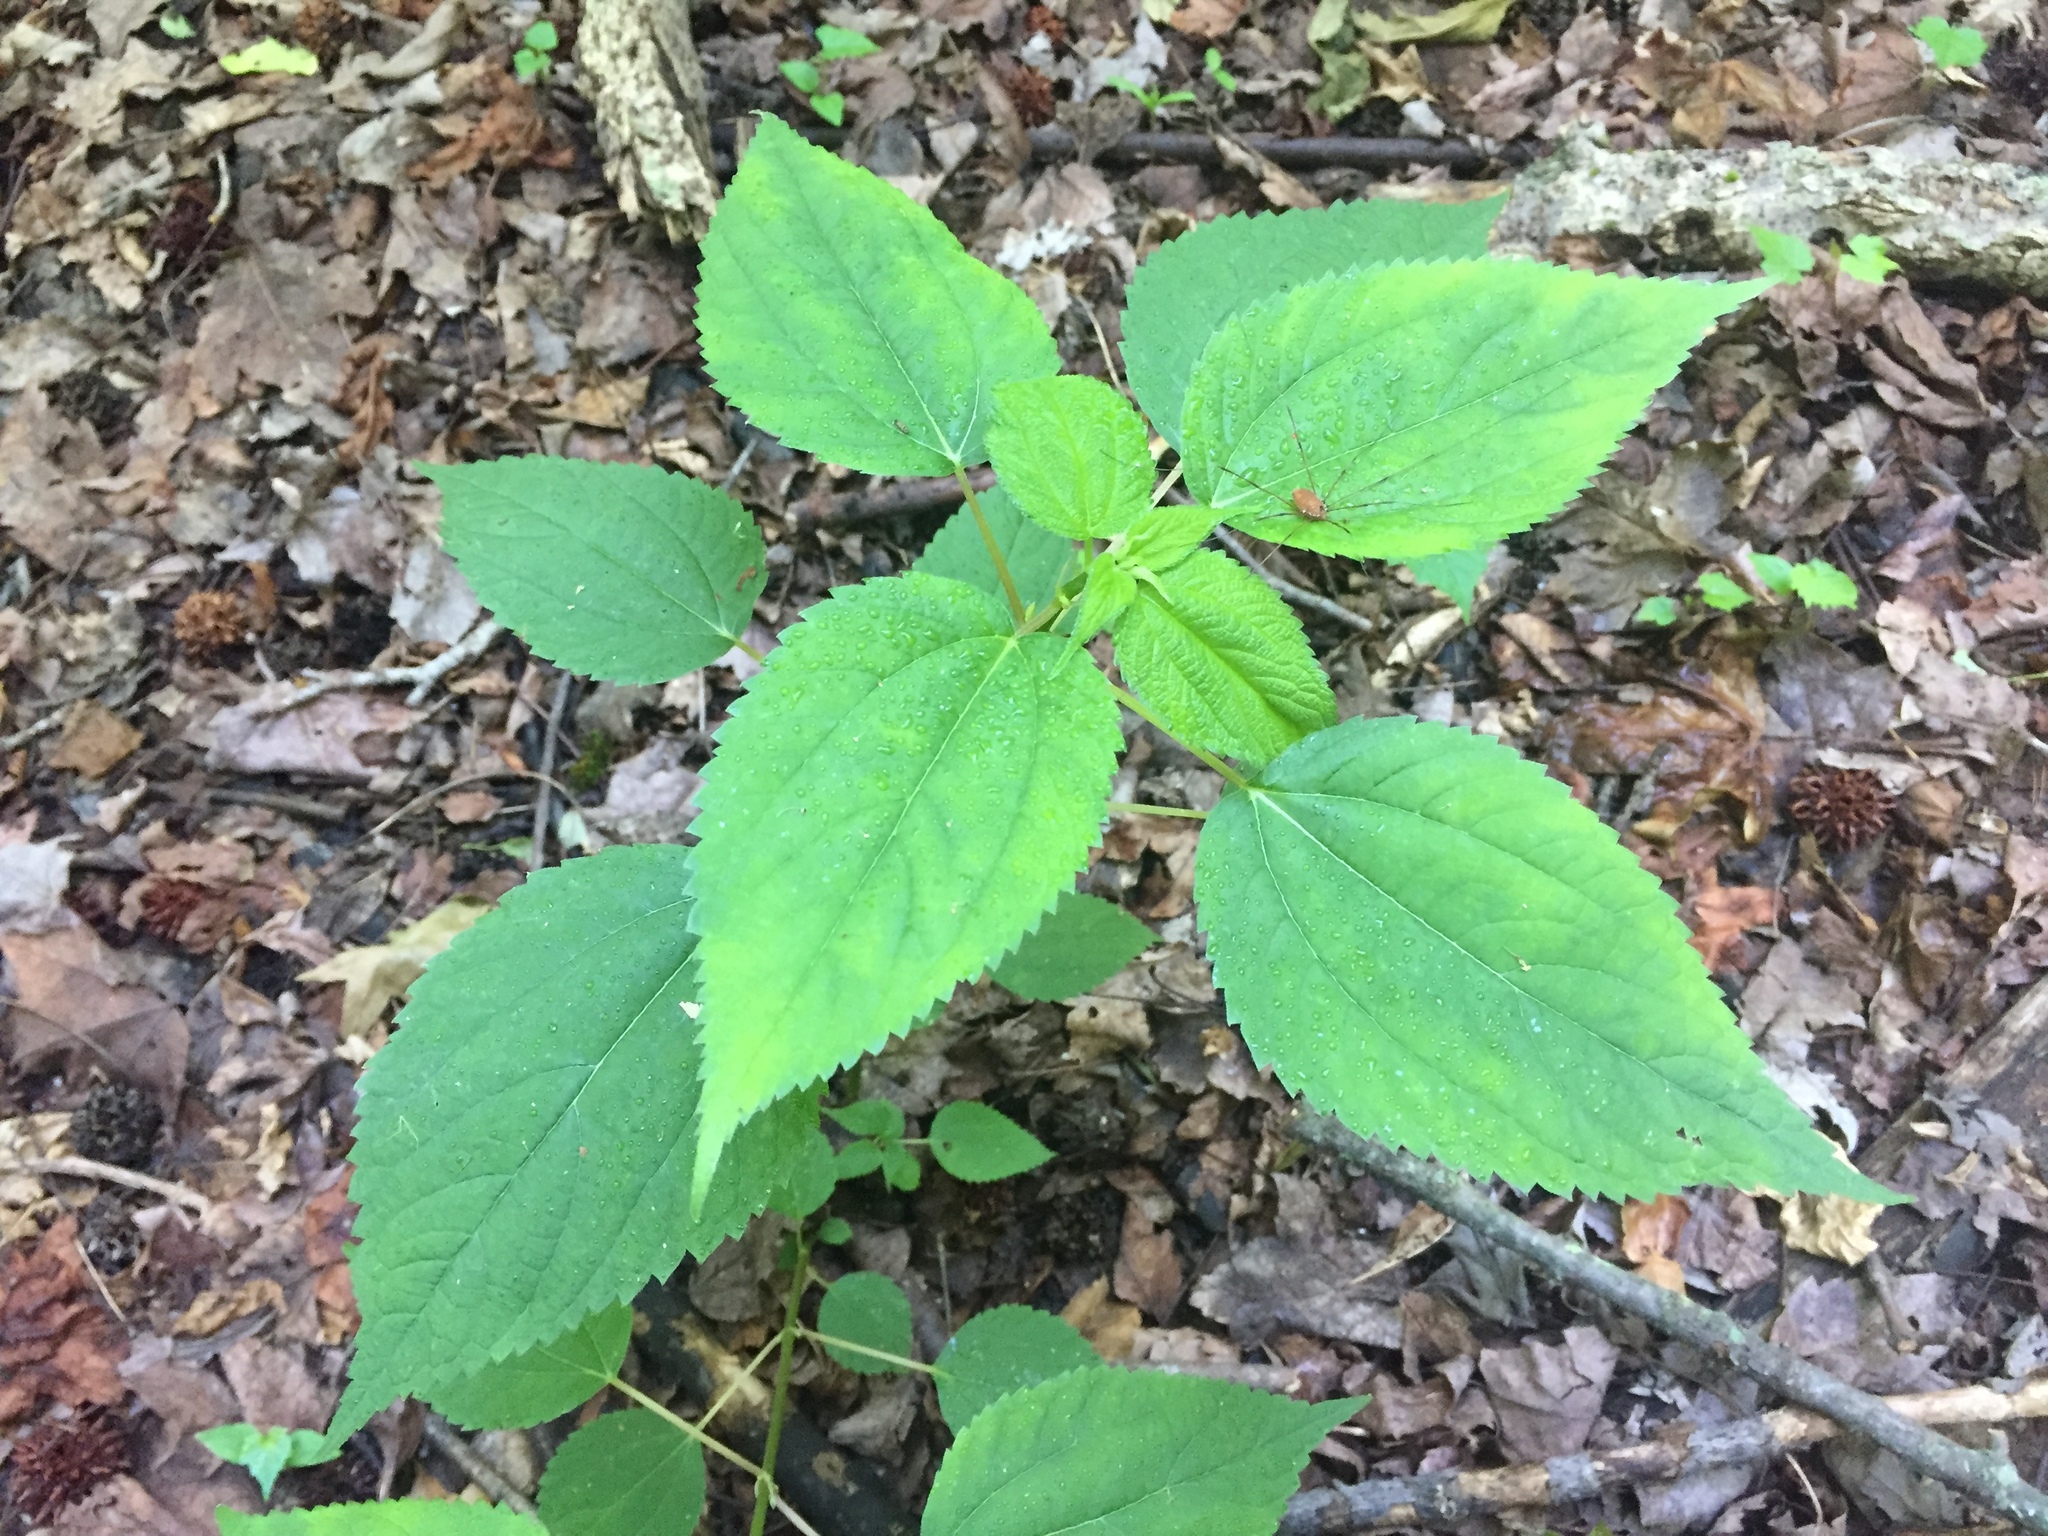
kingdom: Plantae
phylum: Tracheophyta
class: Magnoliopsida
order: Rosales
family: Urticaceae
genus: Boehmeria
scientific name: Boehmeria cylindrica
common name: Bog-hemp
